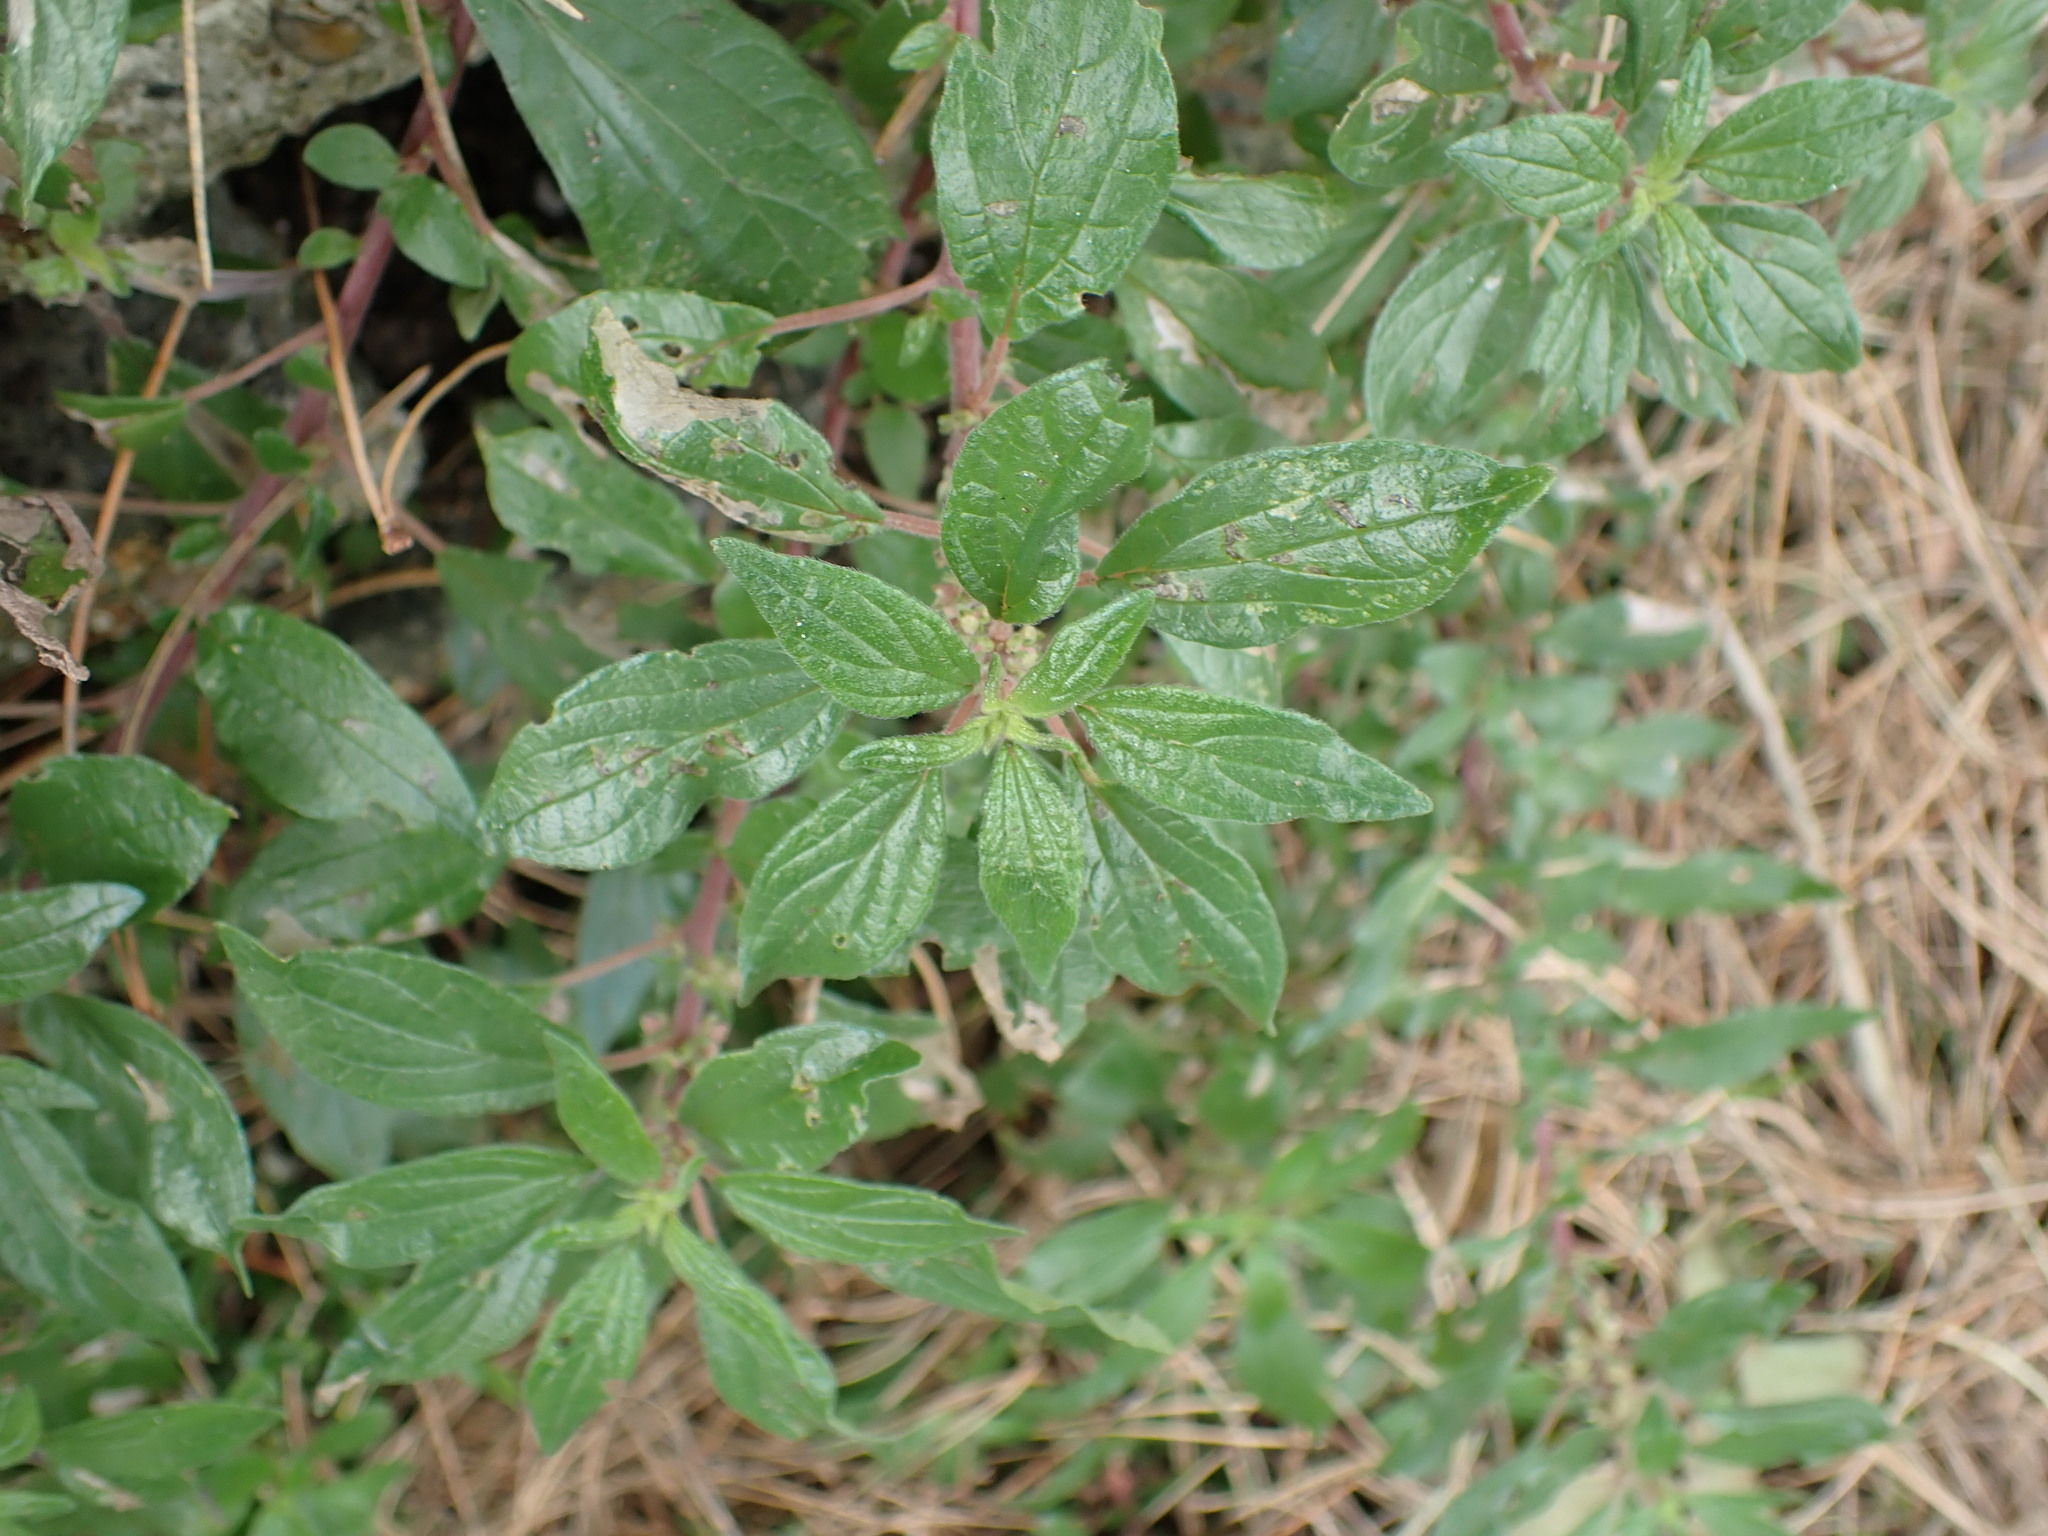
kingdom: Plantae
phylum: Tracheophyta
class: Magnoliopsida
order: Rosales
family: Urticaceae
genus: Parietaria
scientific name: Parietaria judaica
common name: Pellitory-of-the-wall
